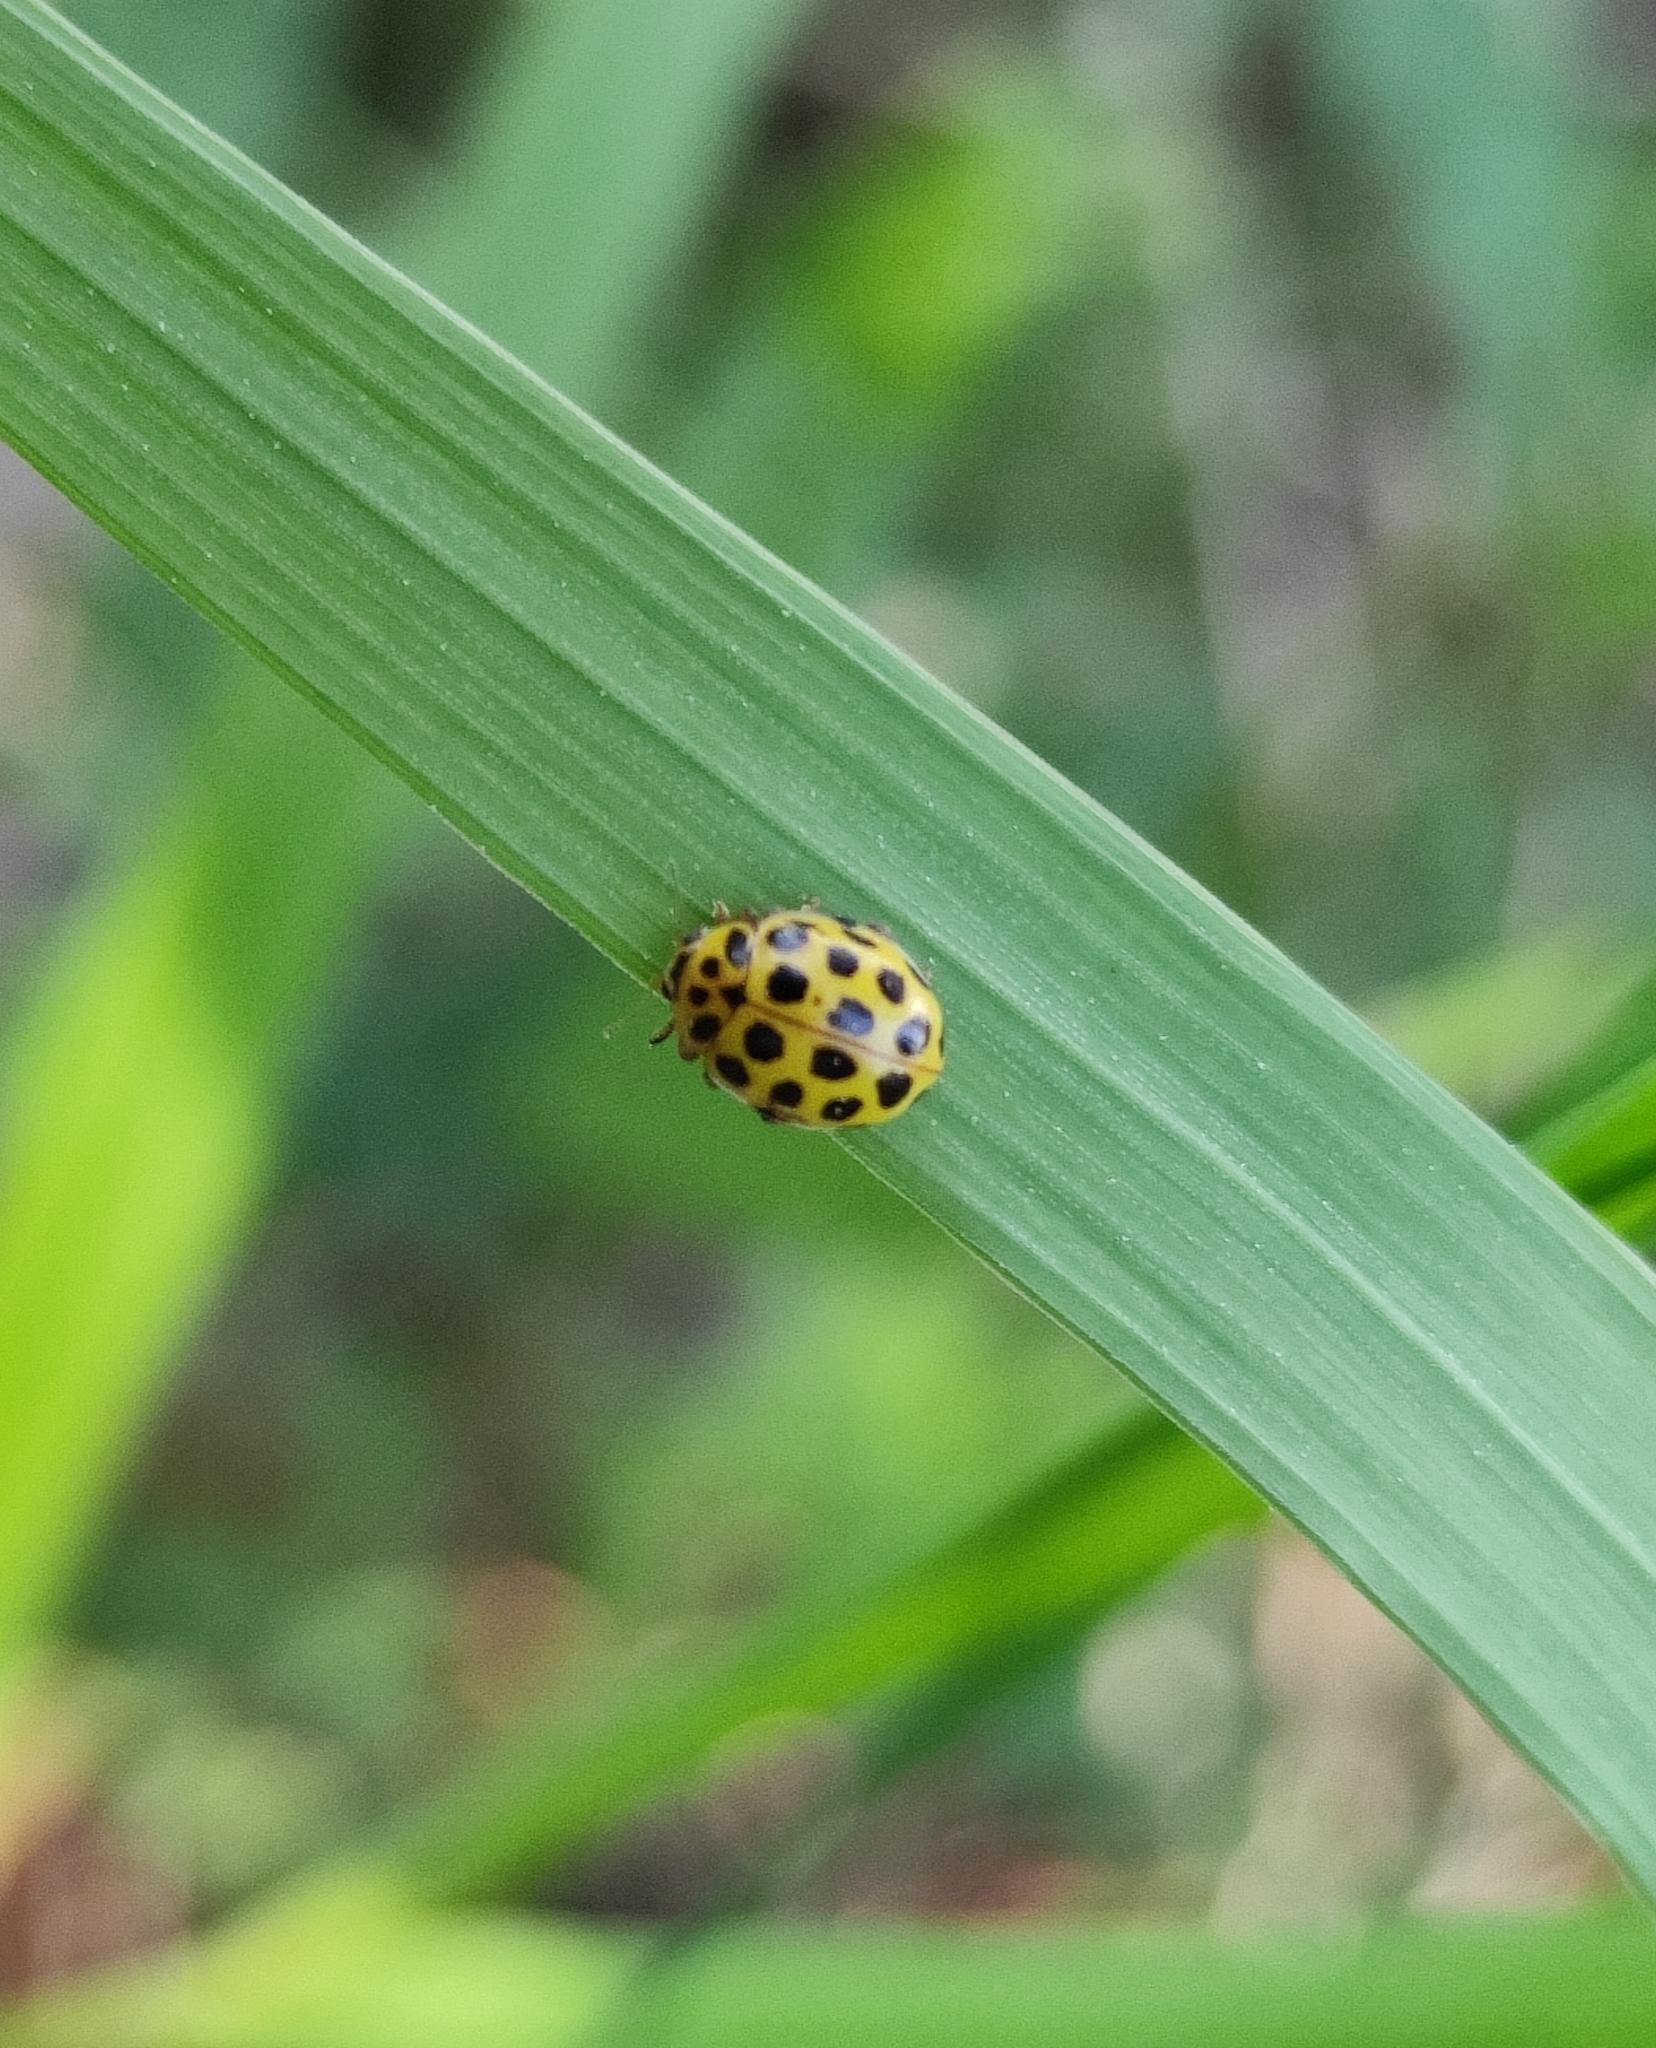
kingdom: Animalia
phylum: Arthropoda
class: Insecta
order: Coleoptera
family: Coccinellidae
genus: Psyllobora
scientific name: Psyllobora vigintiduopunctata
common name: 22-spot ladybird
